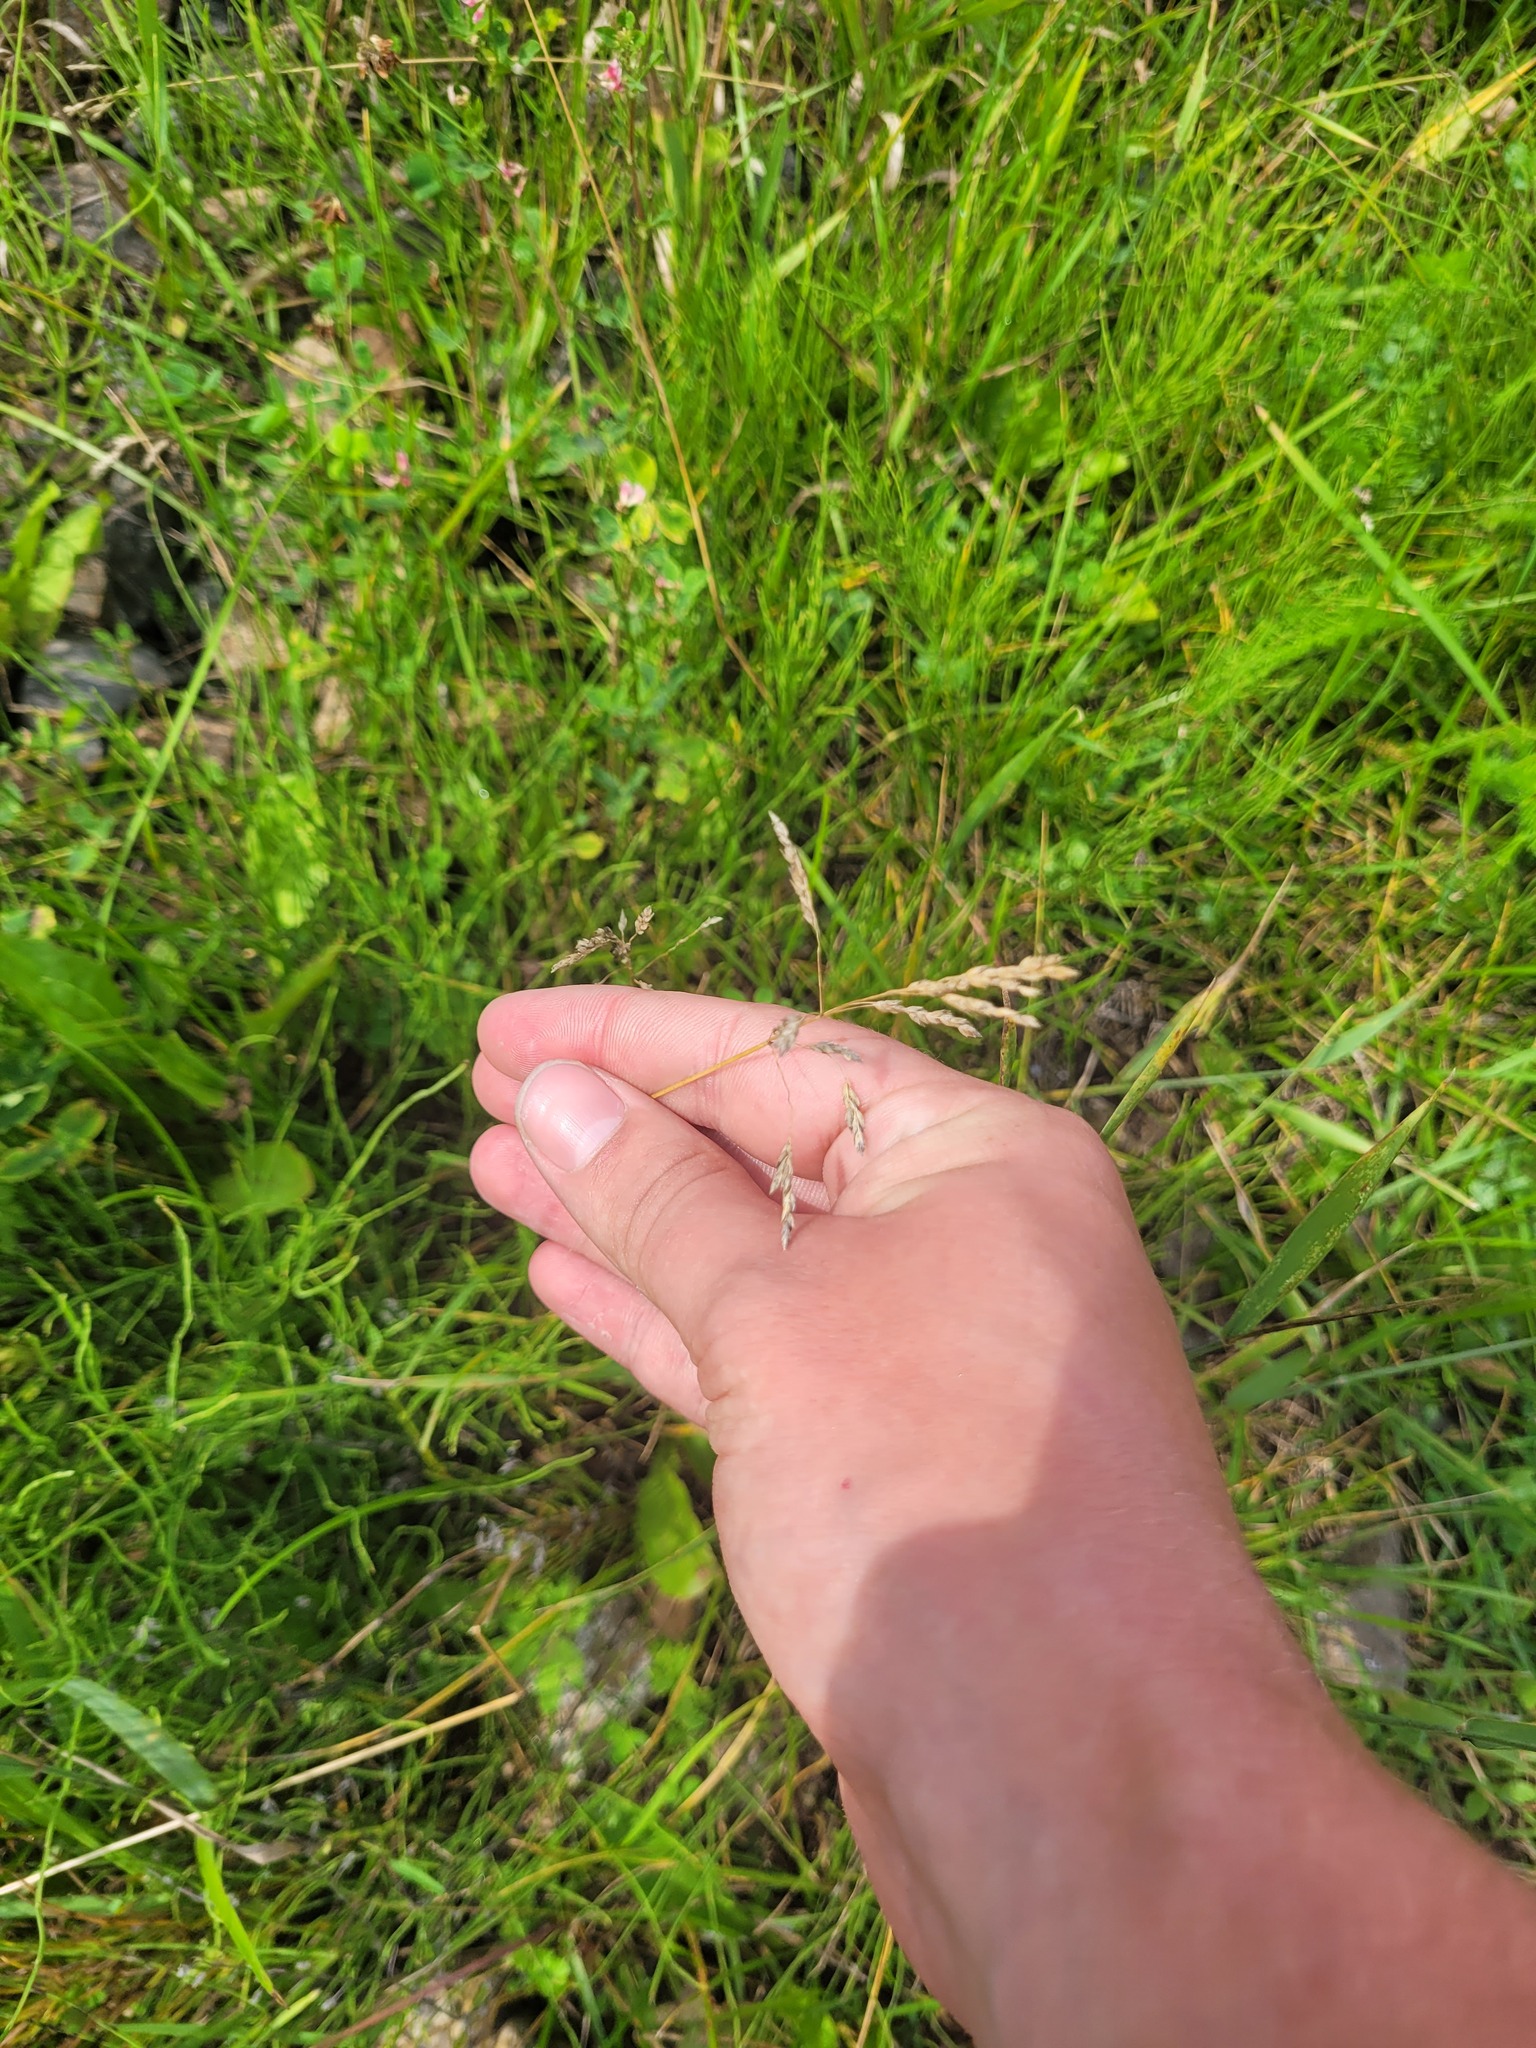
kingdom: Plantae
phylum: Tracheophyta
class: Liliopsida
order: Poales
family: Poaceae
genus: Poa
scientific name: Poa angustifolia
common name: Narrow-leaved meadow-grass
